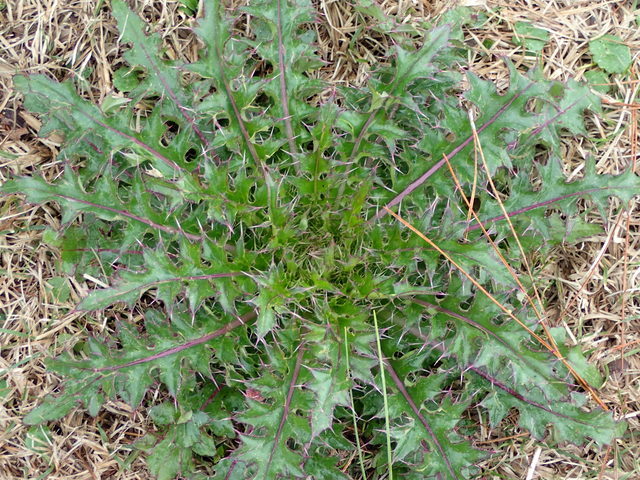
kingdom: Plantae
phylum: Tracheophyta
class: Magnoliopsida
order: Asterales
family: Asteraceae
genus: Cirsium
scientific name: Cirsium horridulum
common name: Bristly thistle
